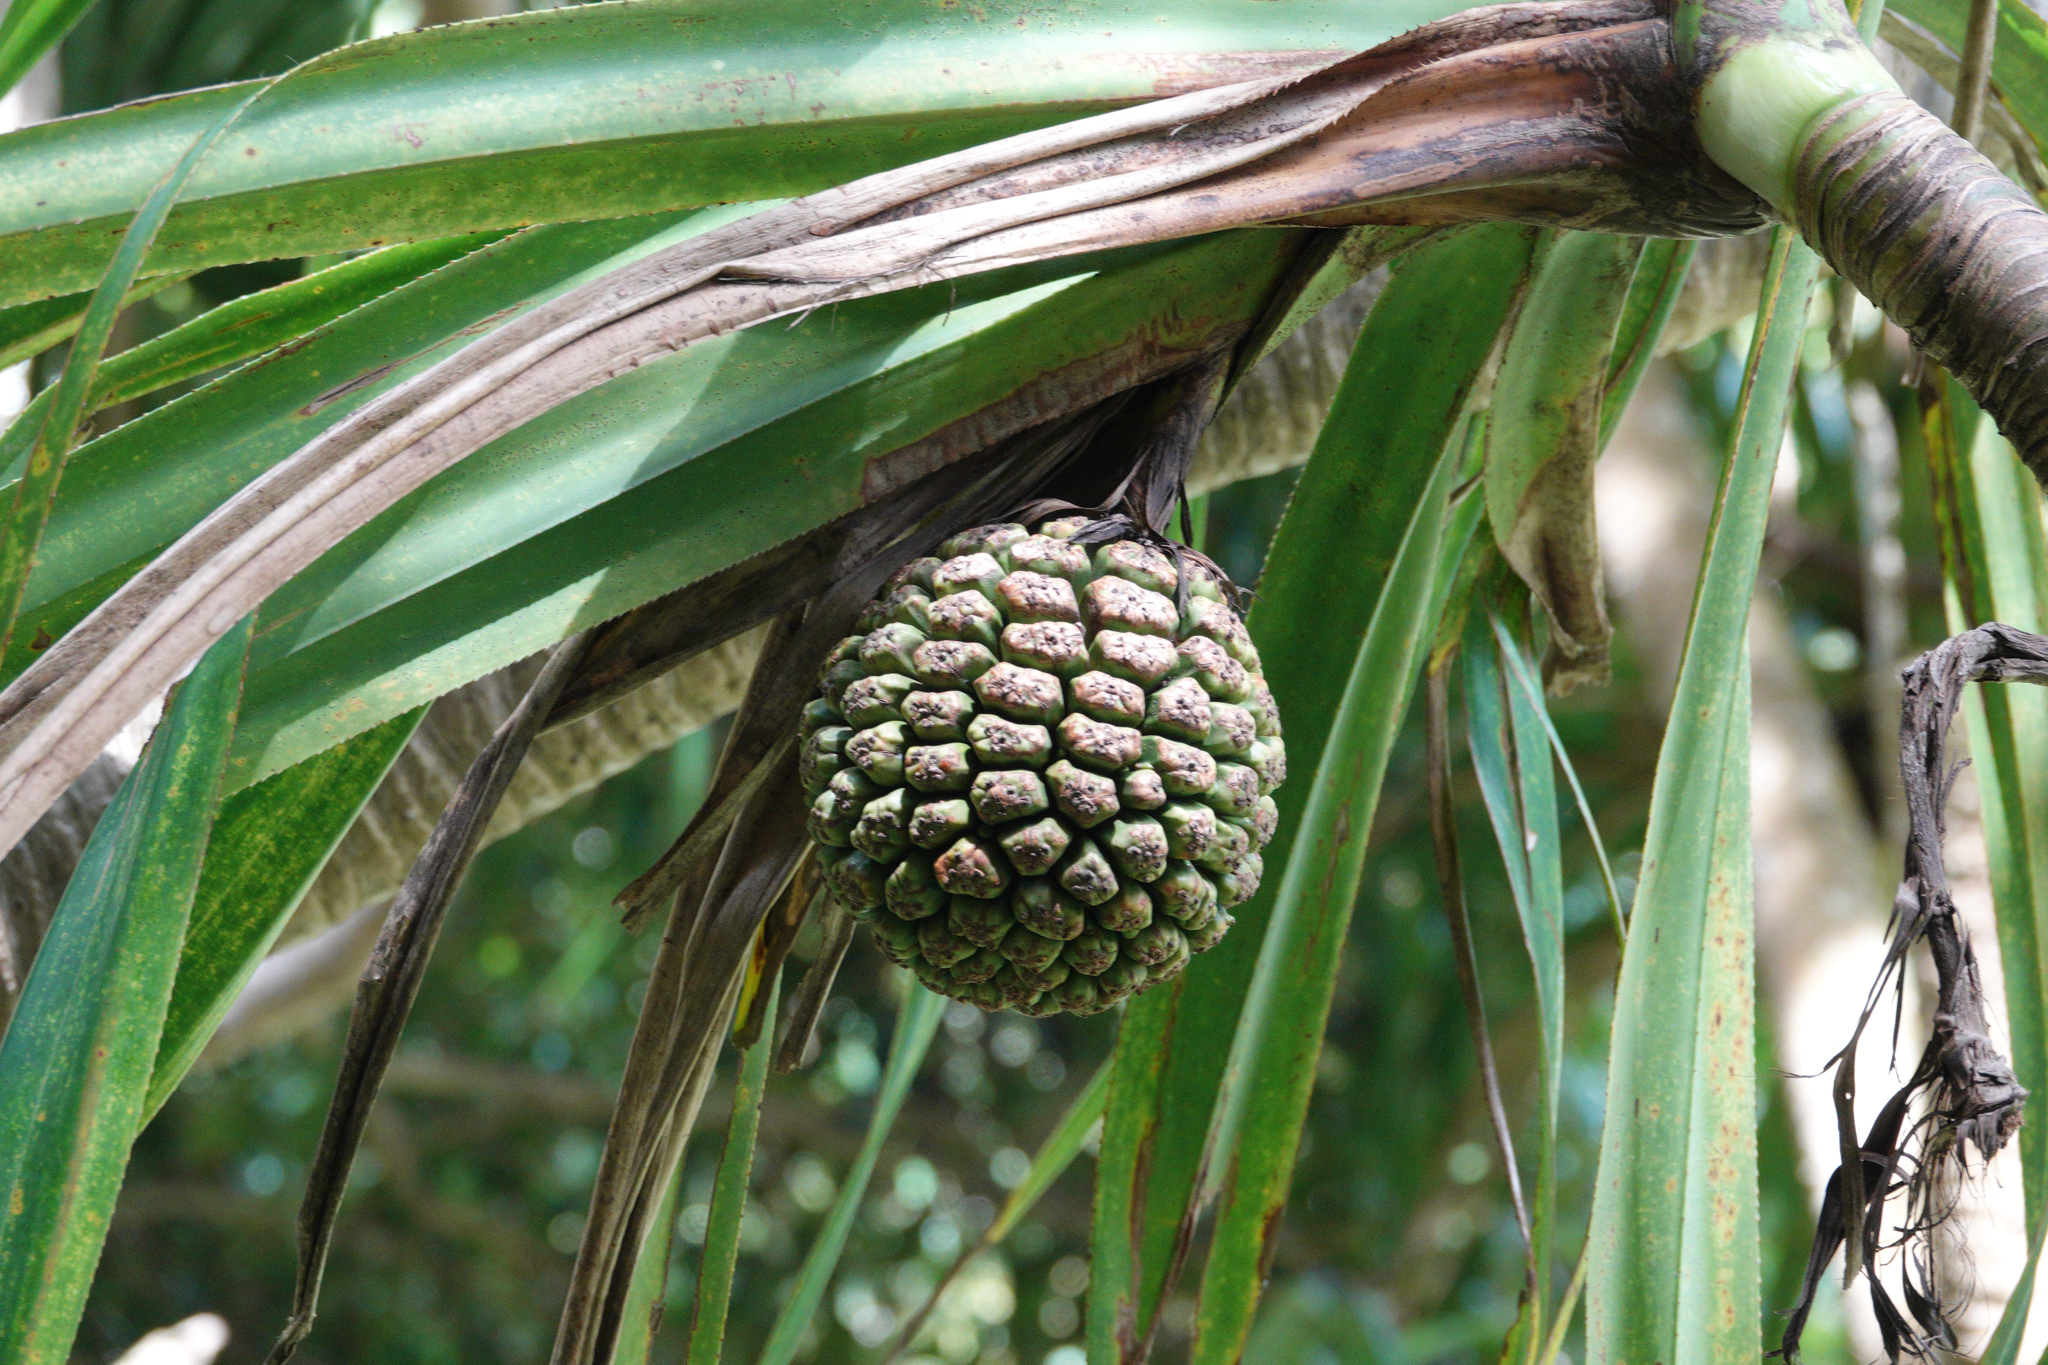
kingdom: Plantae
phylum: Tracheophyta
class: Liliopsida
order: Pandanales
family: Pandanaceae
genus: Pandanus
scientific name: Pandanus tectorius
